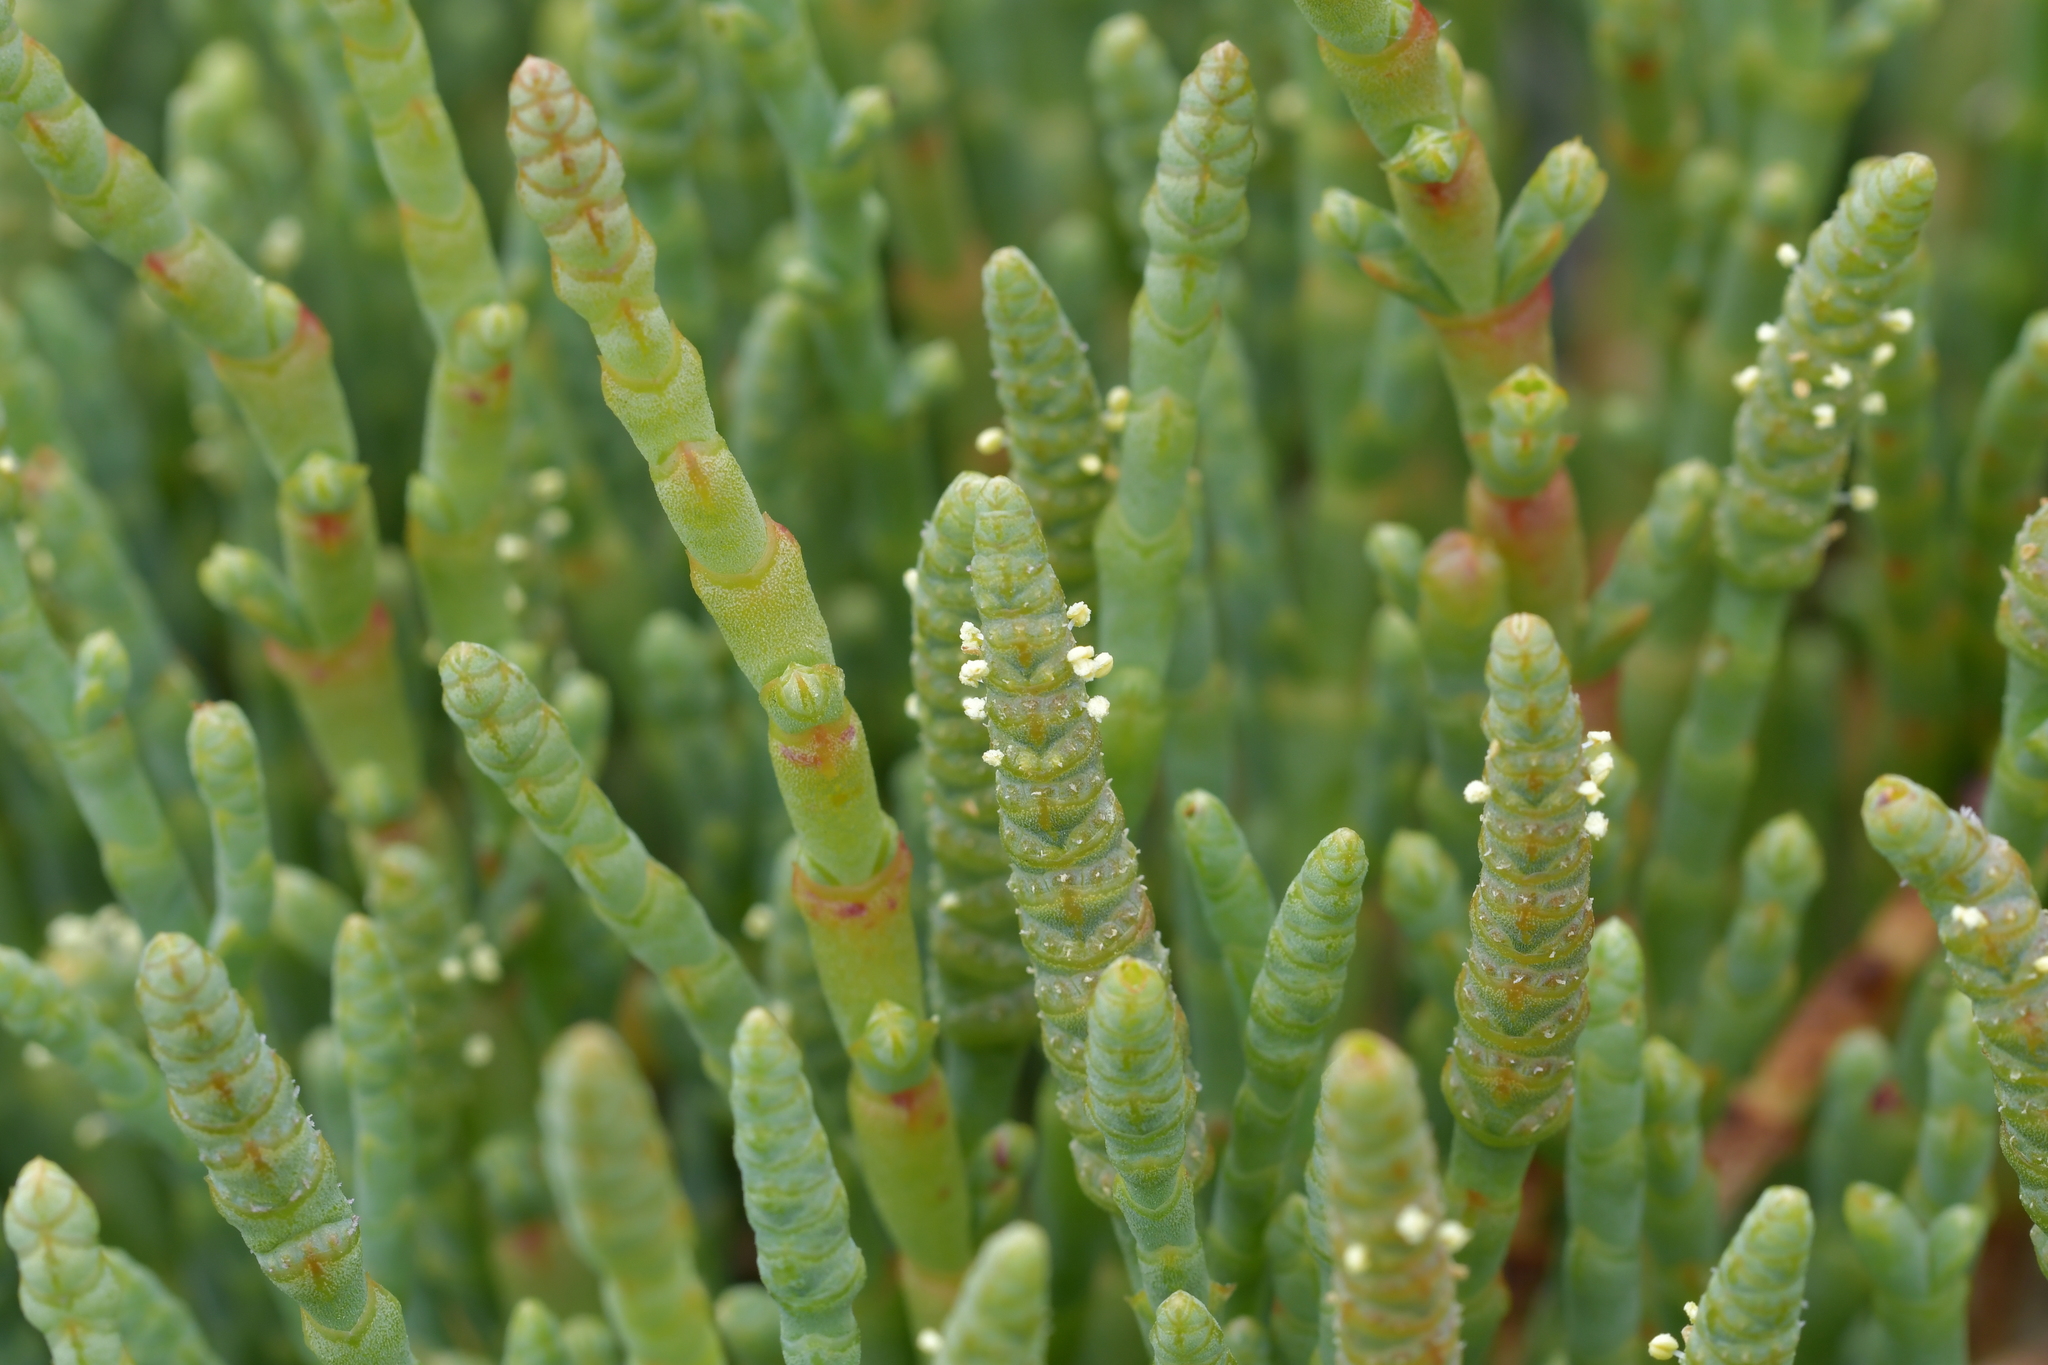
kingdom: Plantae
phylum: Tracheophyta
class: Magnoliopsida
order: Caryophyllales
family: Amaranthaceae
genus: Salicornia
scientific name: Salicornia quinqueflora
